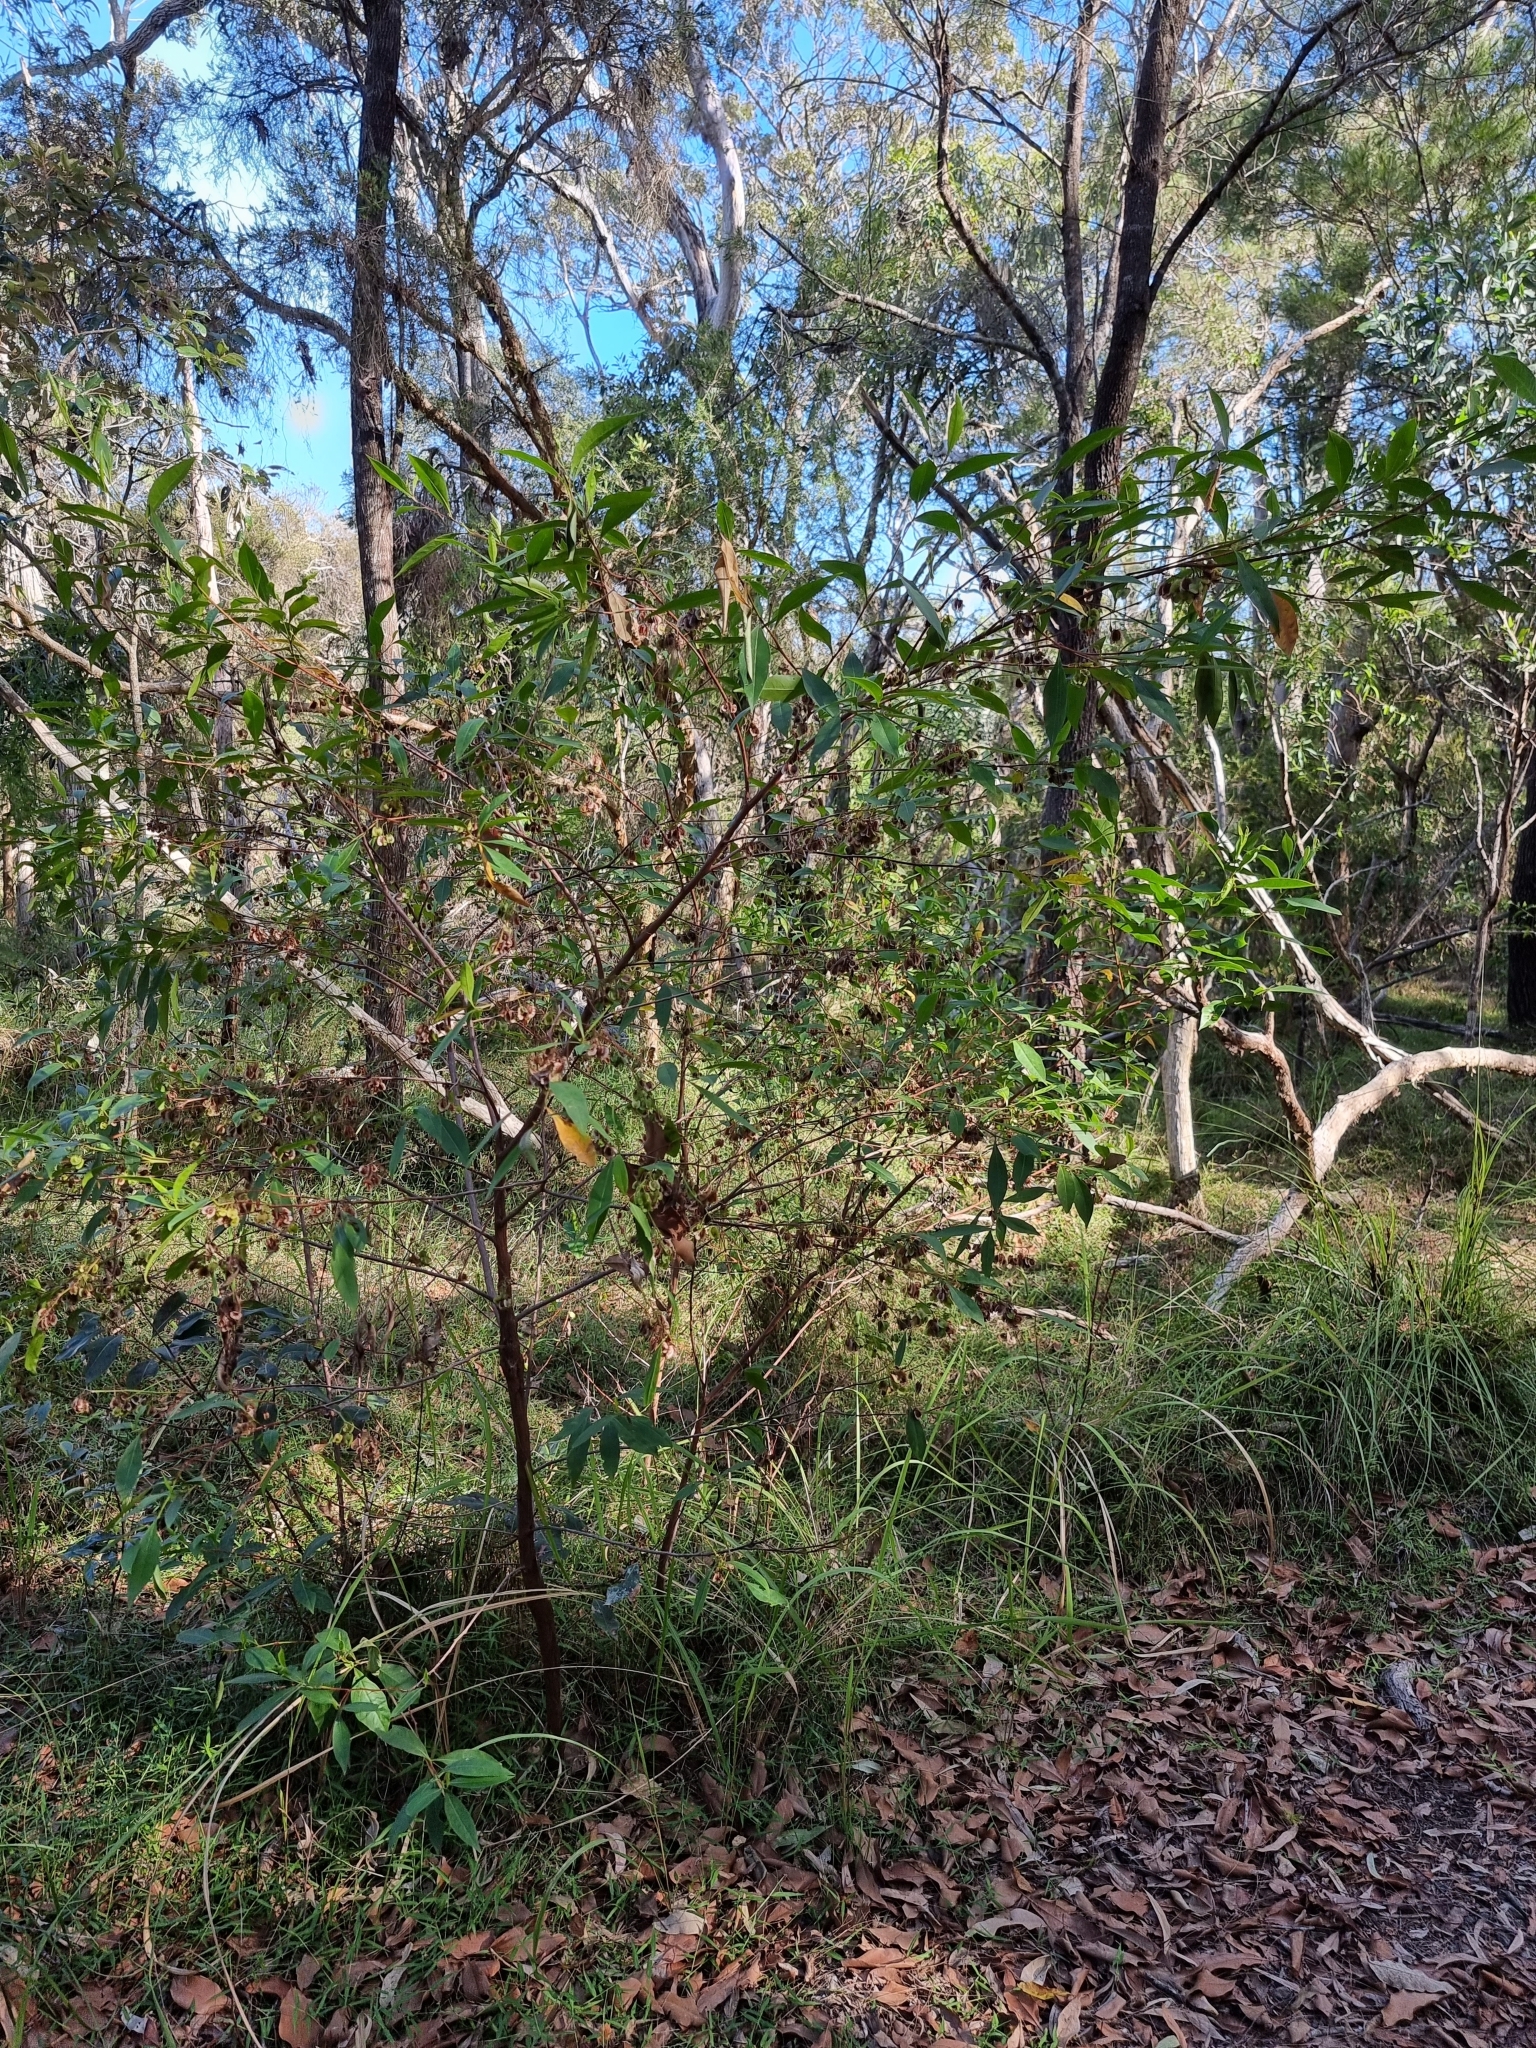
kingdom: Plantae
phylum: Tracheophyta
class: Magnoliopsida
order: Sapindales
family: Sapindaceae
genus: Dodonaea
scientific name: Dodonaea triquetra
